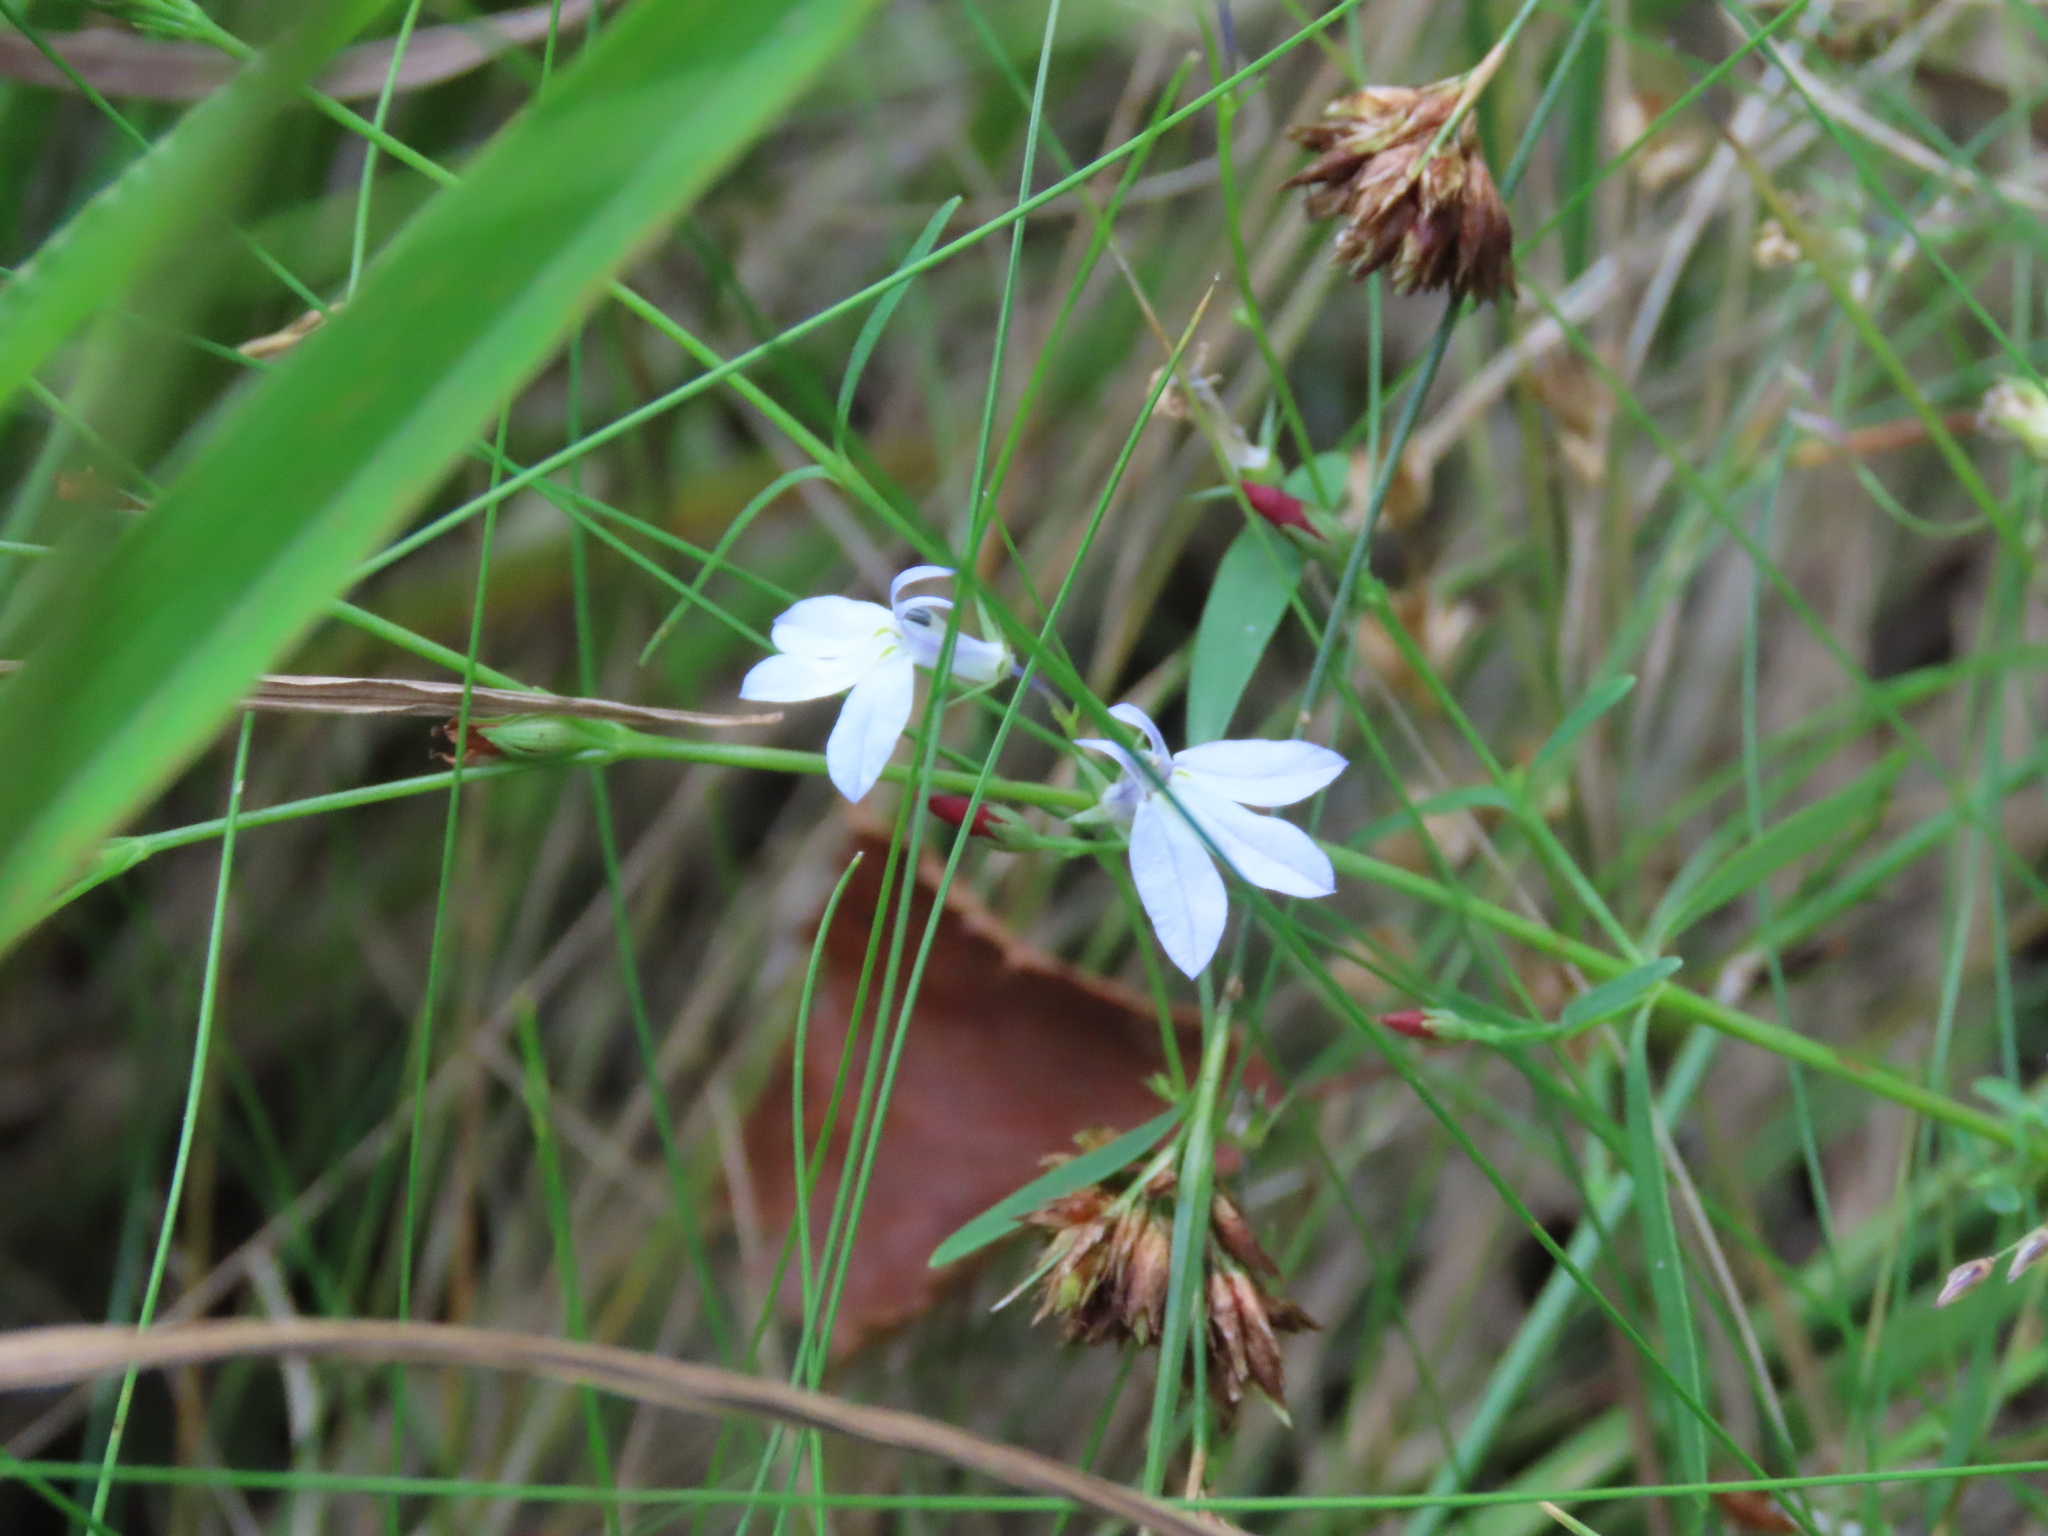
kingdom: Plantae
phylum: Tracheophyta
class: Magnoliopsida
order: Asterales
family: Campanulaceae
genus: Lobelia
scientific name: Lobelia nuttallii
